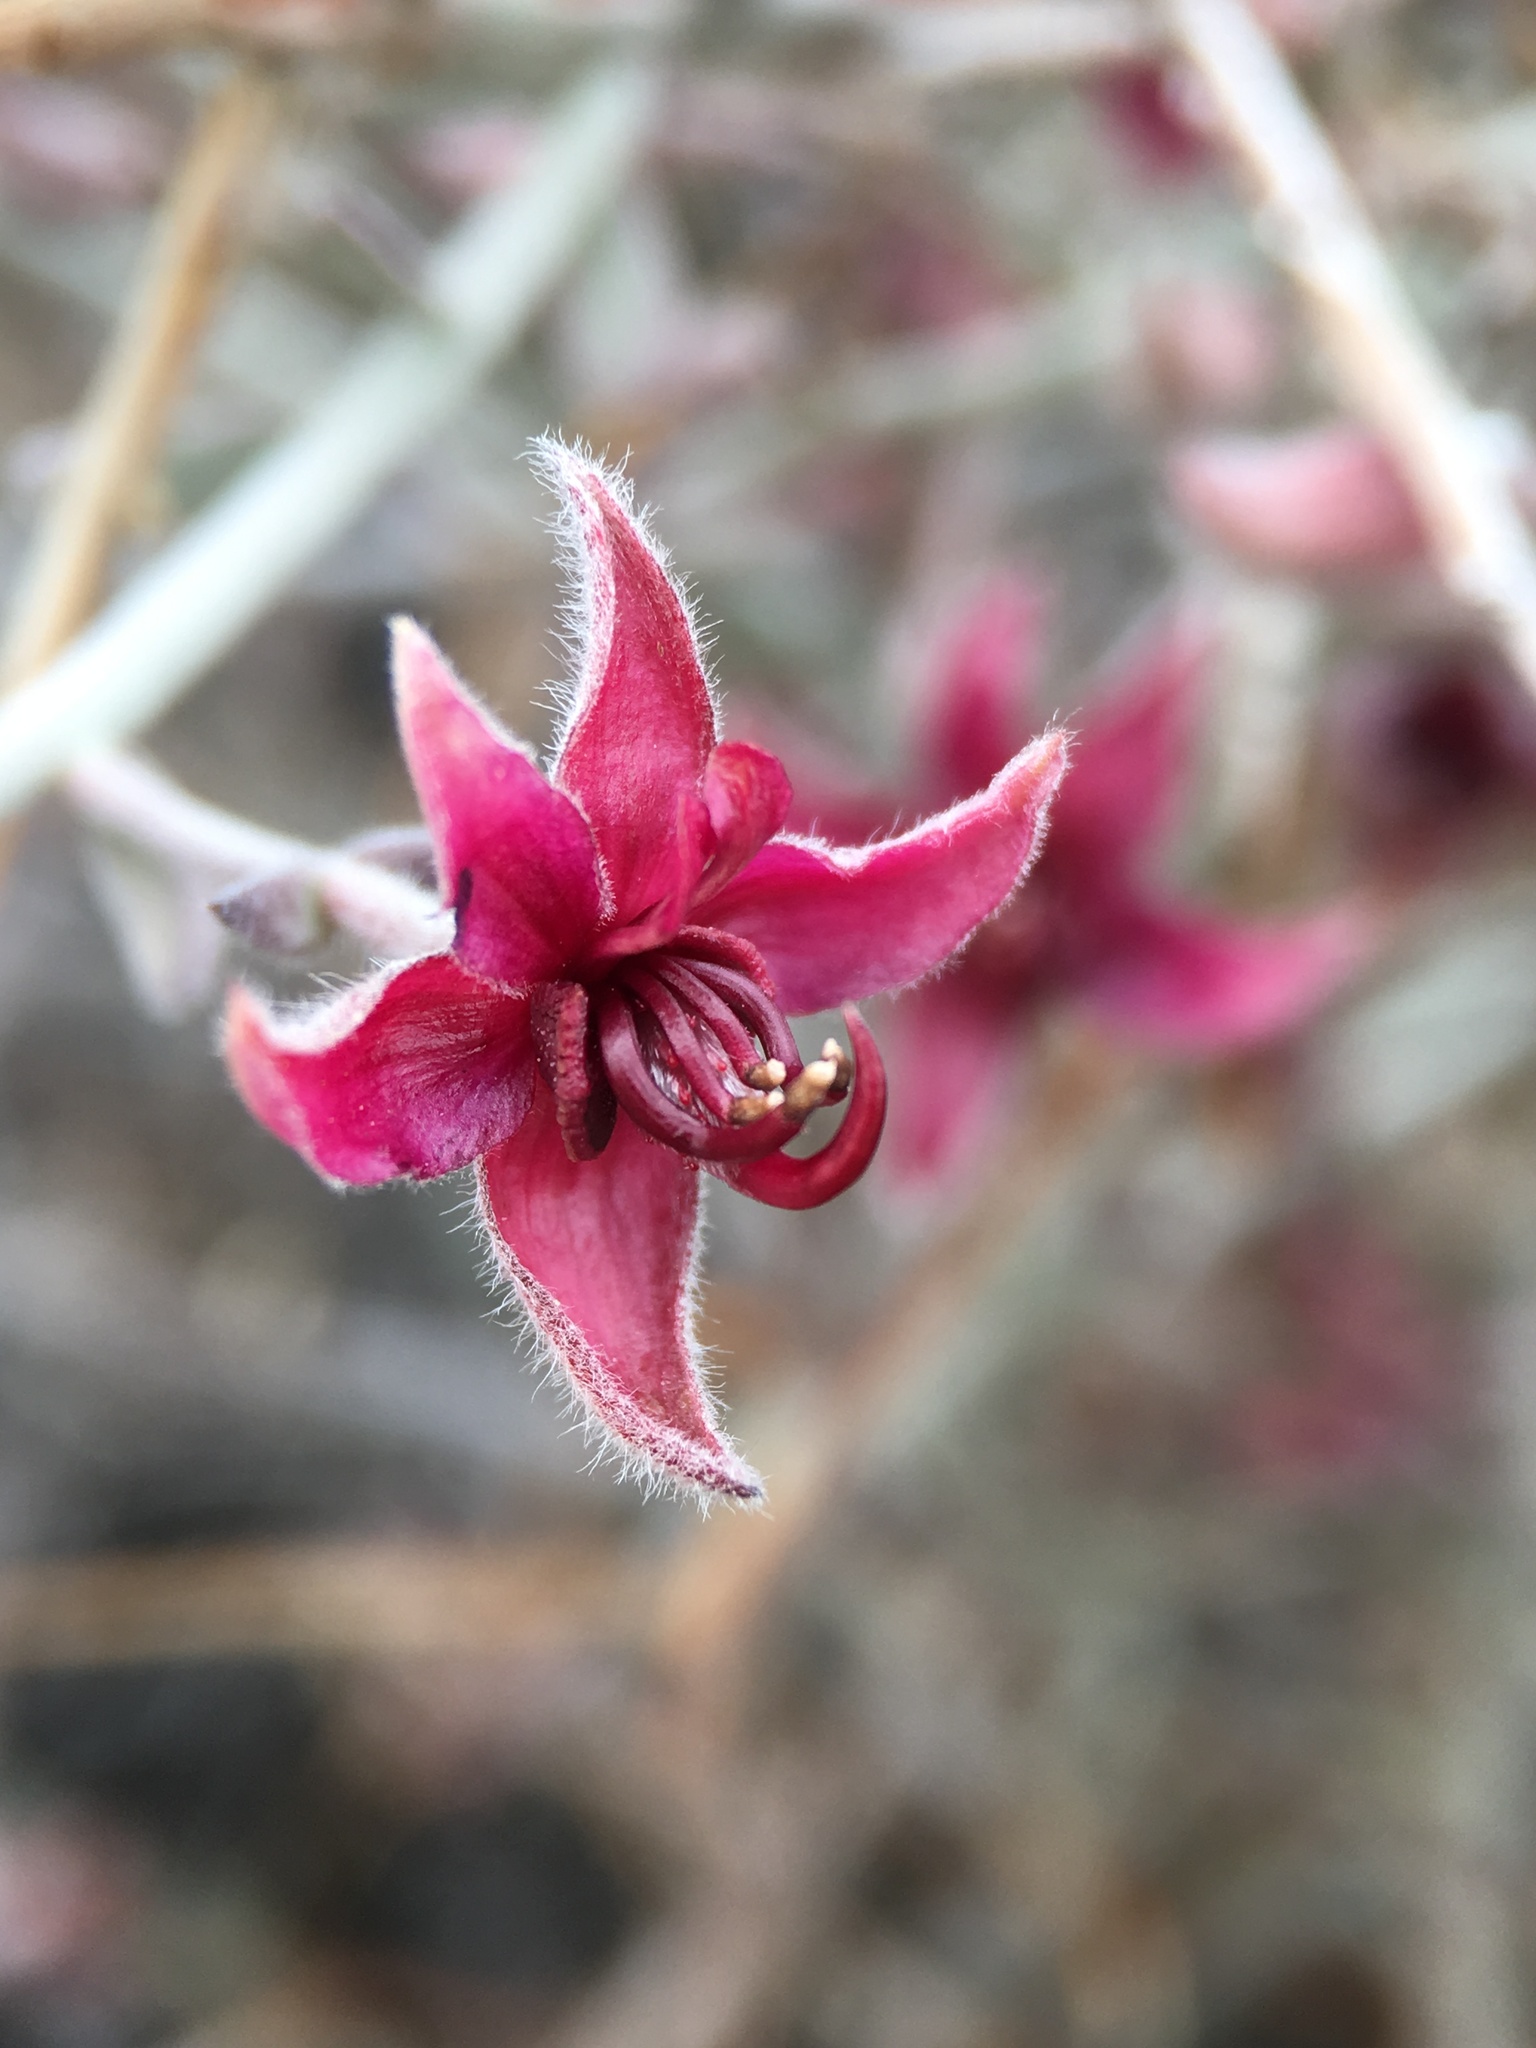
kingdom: Plantae
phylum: Tracheophyta
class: Magnoliopsida
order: Zygophyllales
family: Krameriaceae
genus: Krameria
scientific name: Krameria bicolor
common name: White ratany
